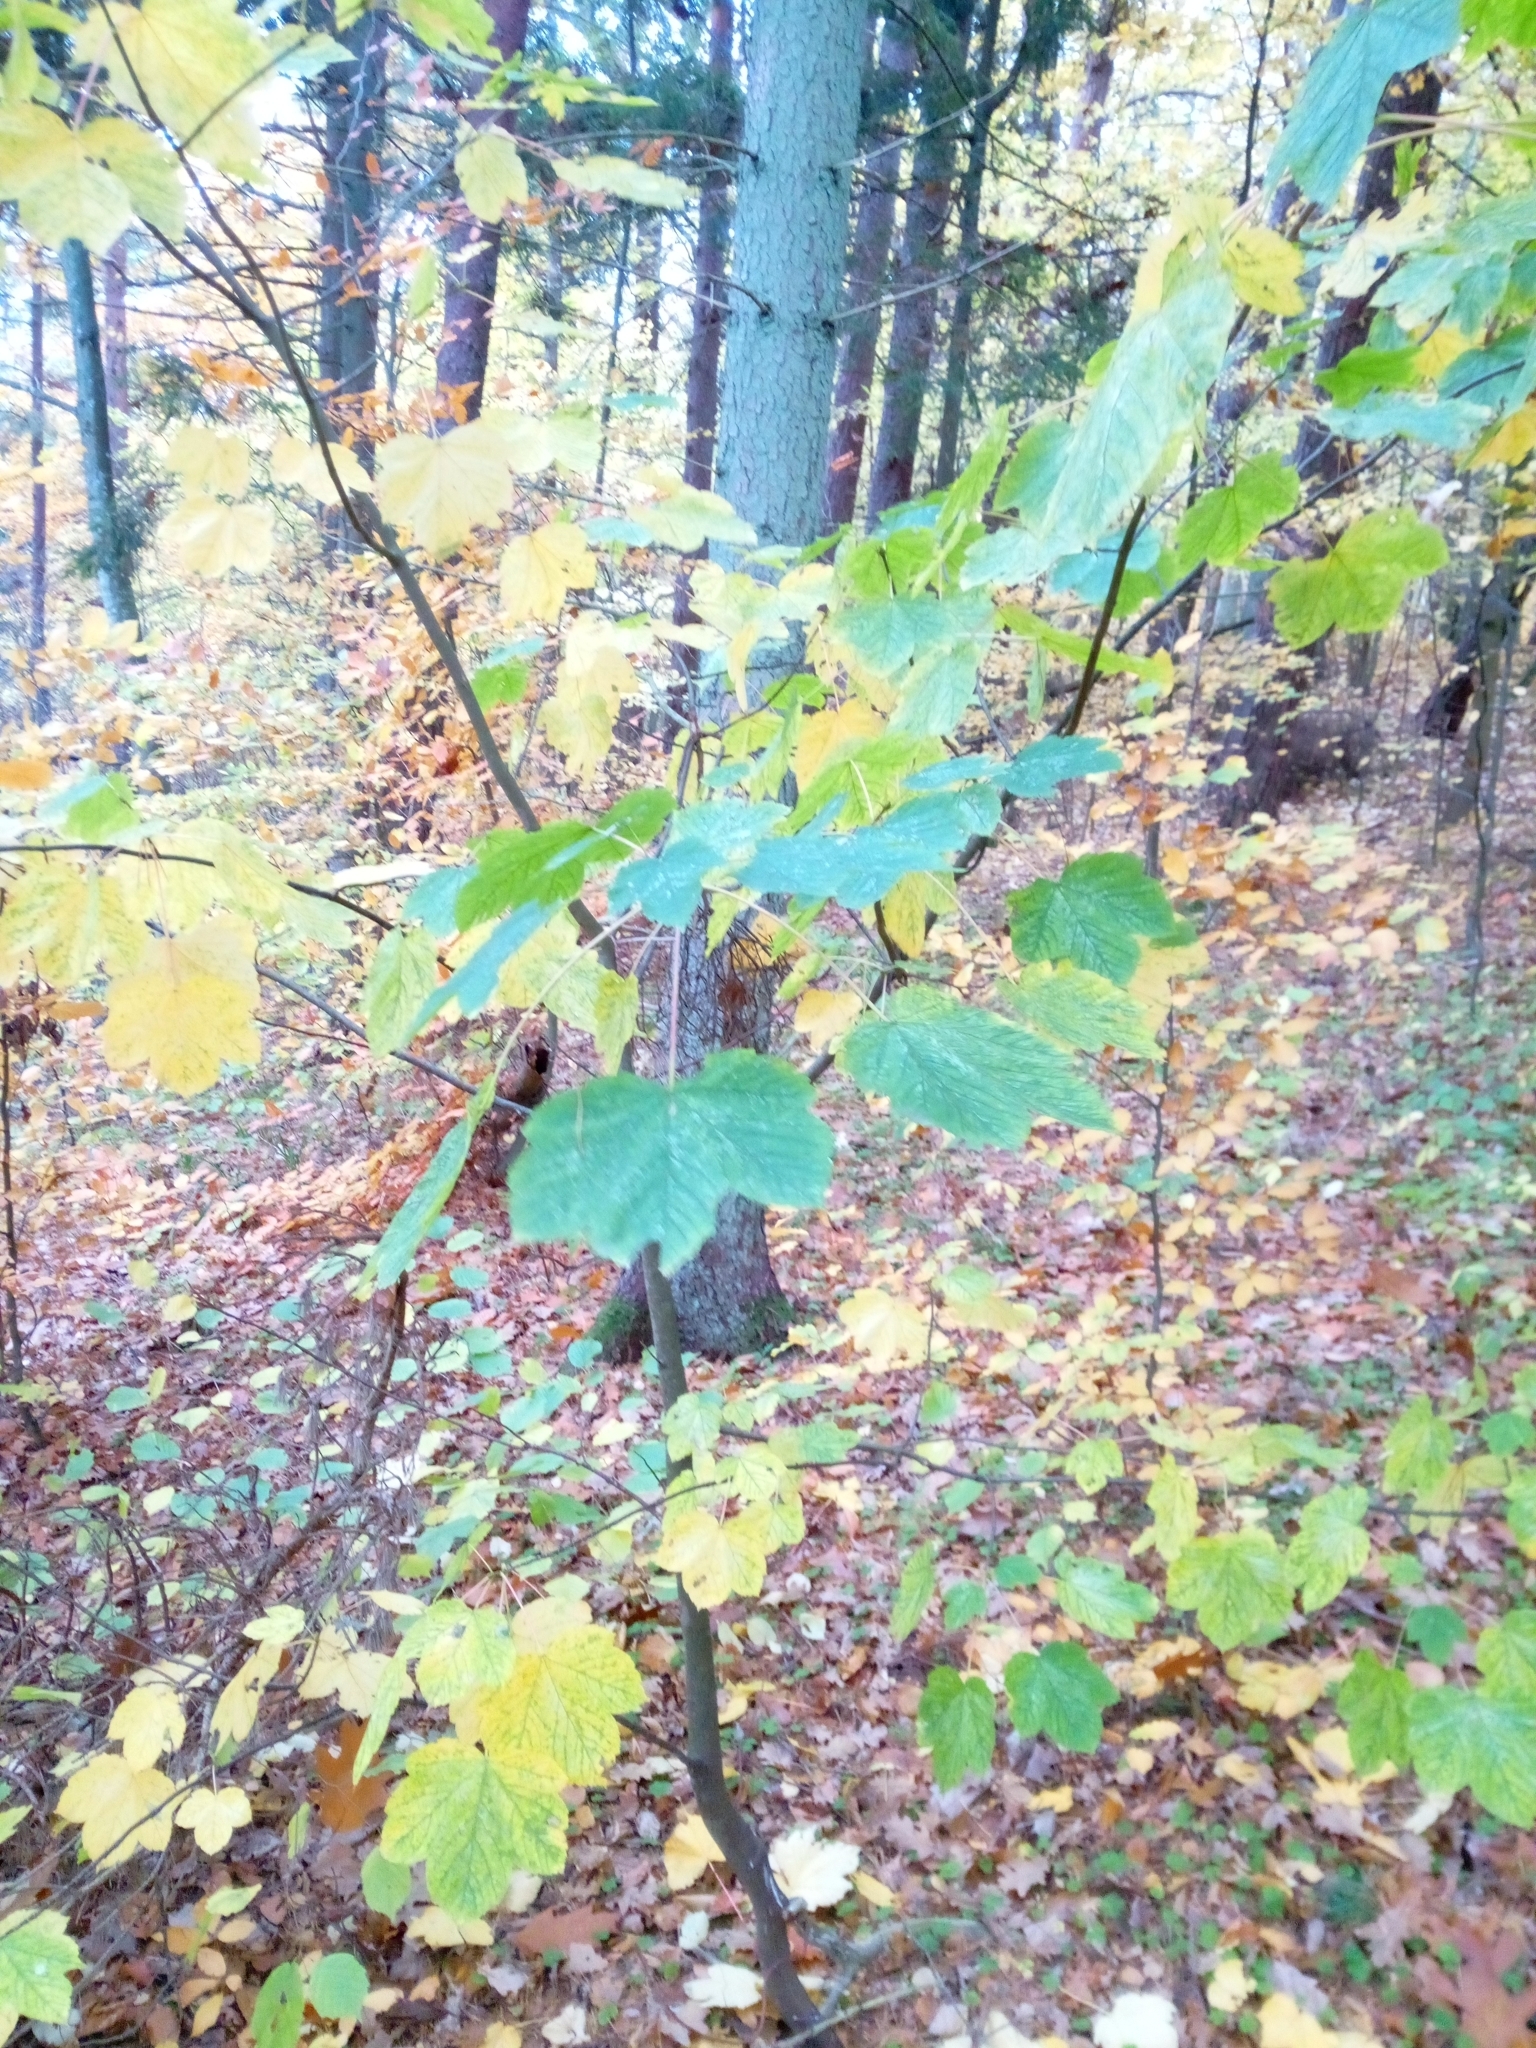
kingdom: Plantae
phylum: Tracheophyta
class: Magnoliopsida
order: Sapindales
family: Sapindaceae
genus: Acer
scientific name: Acer pseudoplatanus
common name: Sycamore
